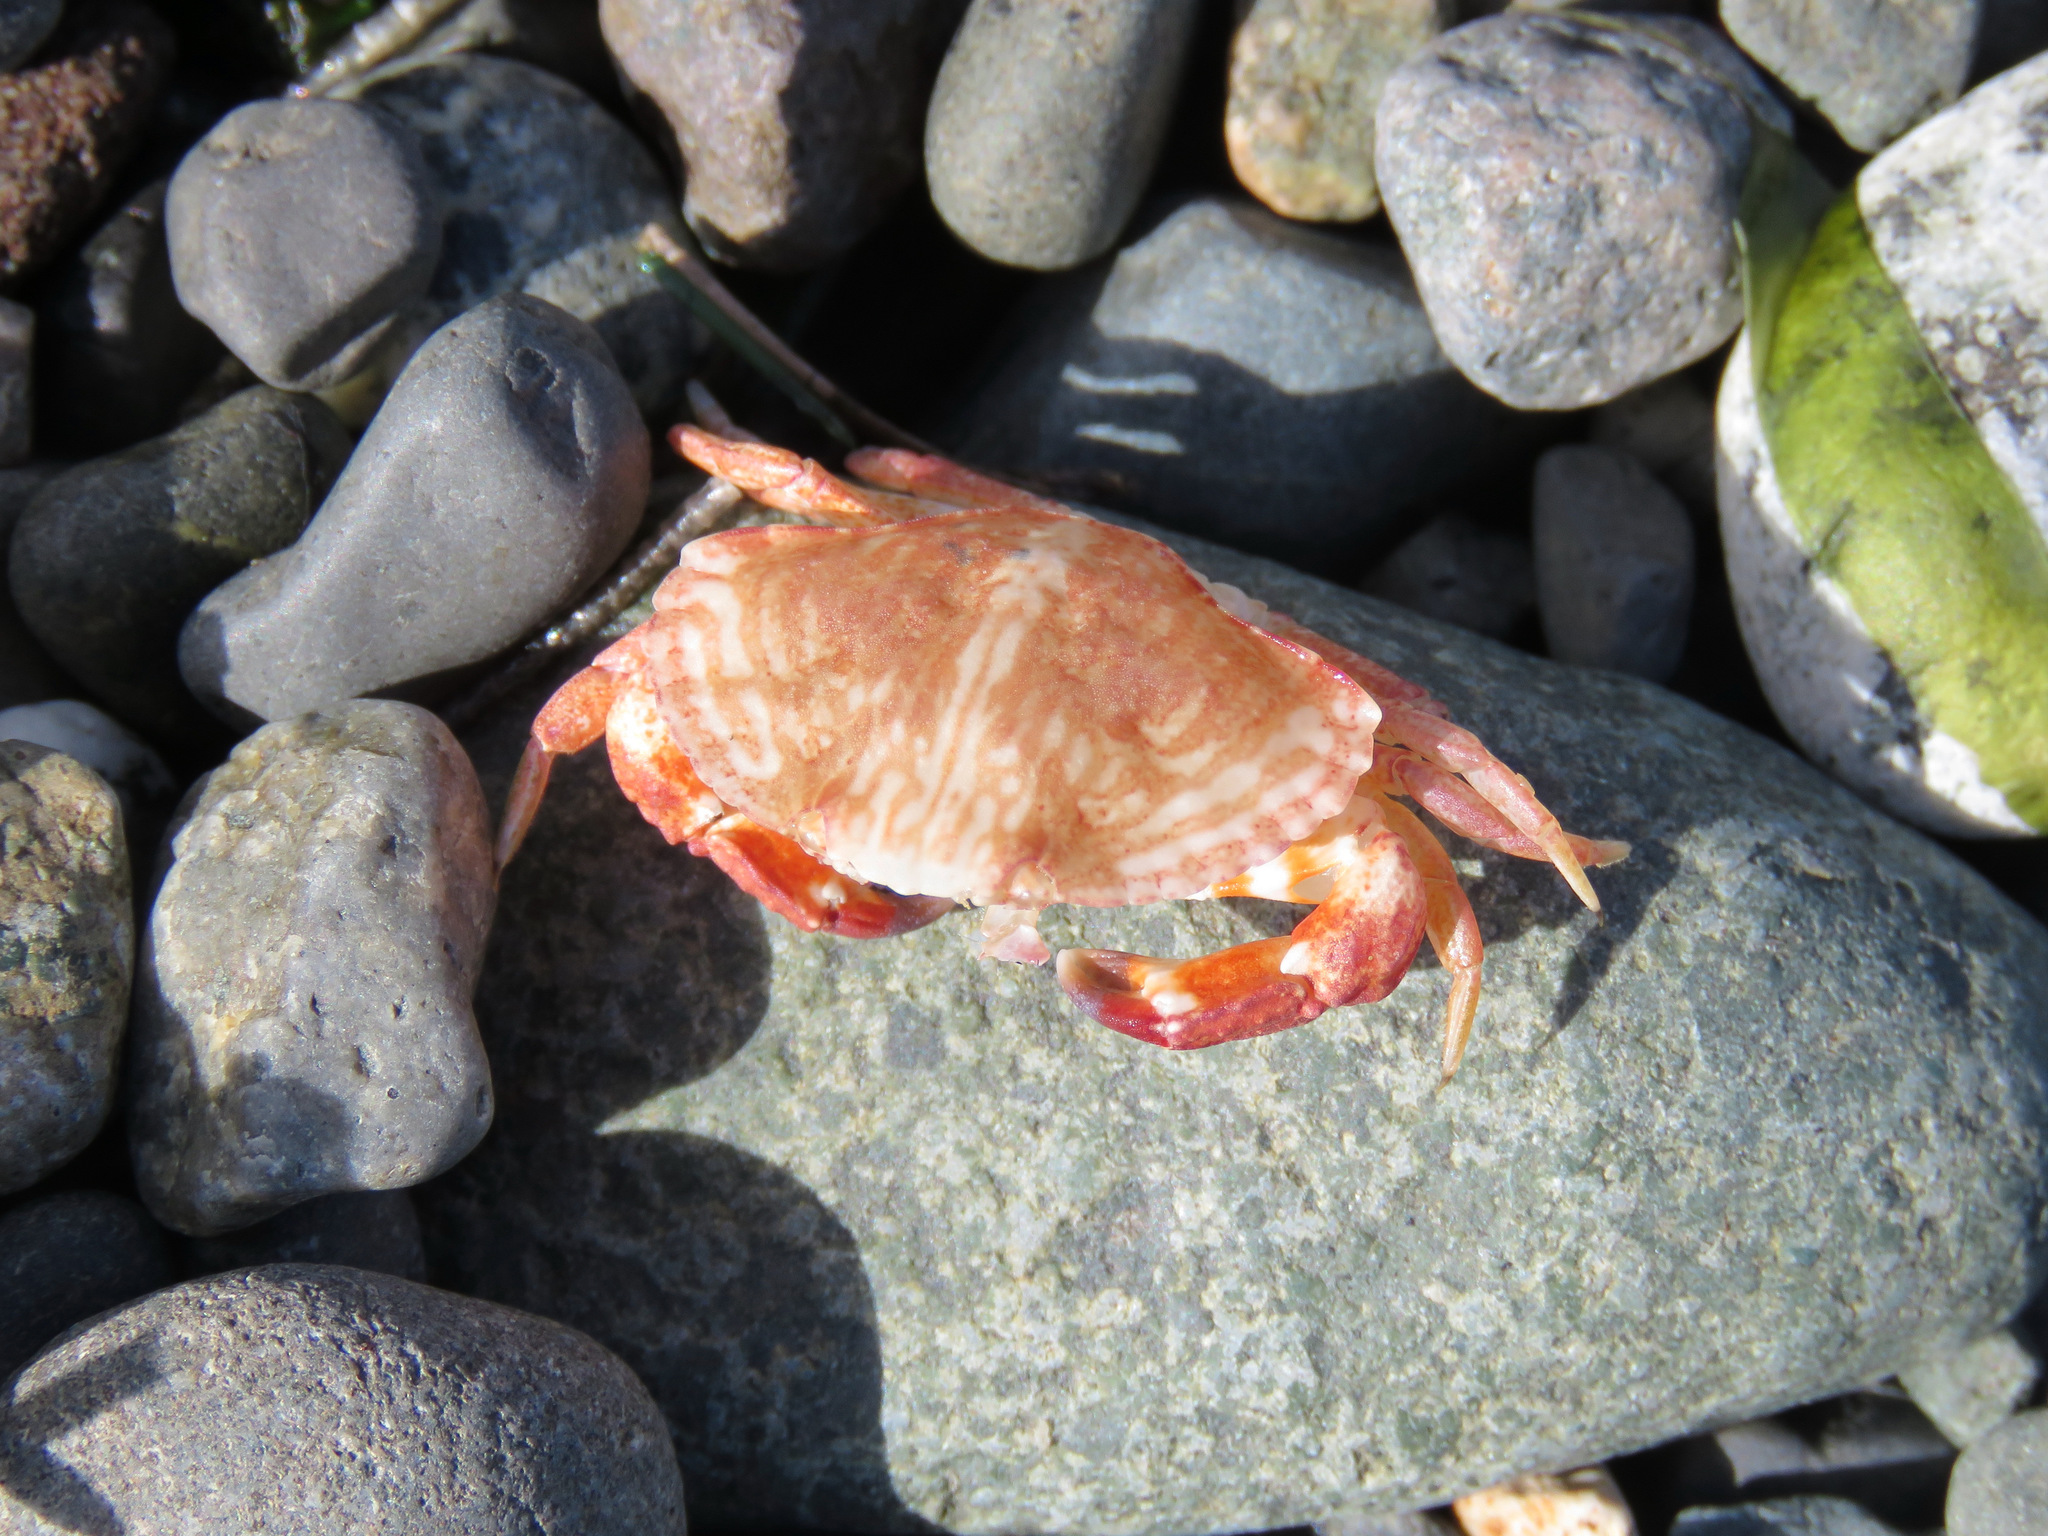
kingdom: Animalia
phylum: Arthropoda
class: Malacostraca
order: Decapoda
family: Cancridae
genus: Cancer
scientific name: Cancer productus
